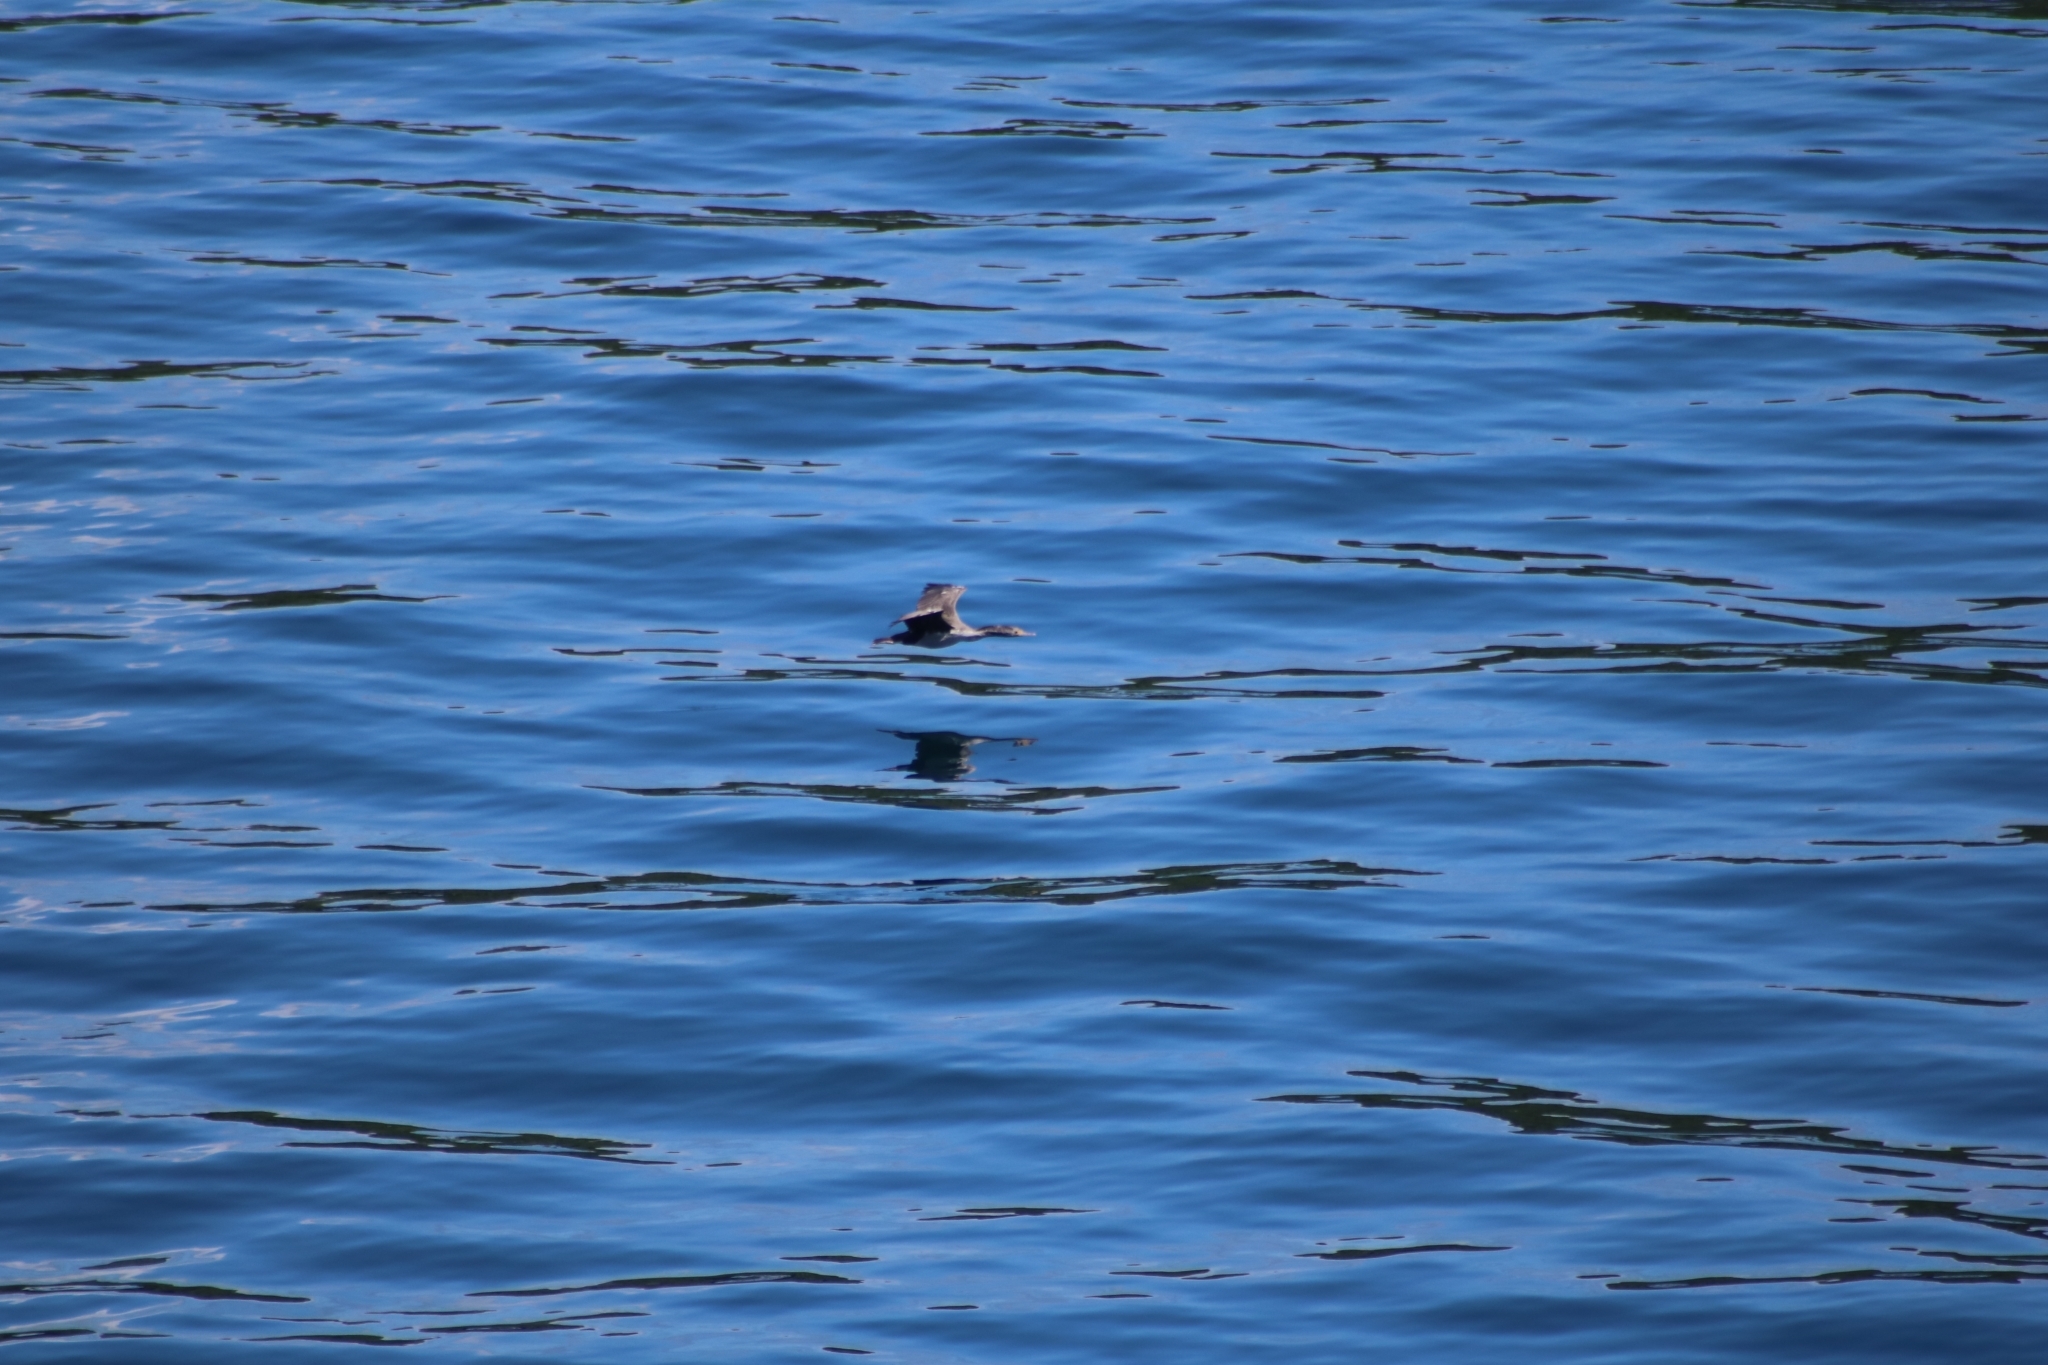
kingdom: Animalia
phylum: Chordata
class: Aves
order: Suliformes
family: Phalacrocoracidae
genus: Phalacrocorax
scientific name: Phalacrocorax punctatus
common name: Spotted shag
